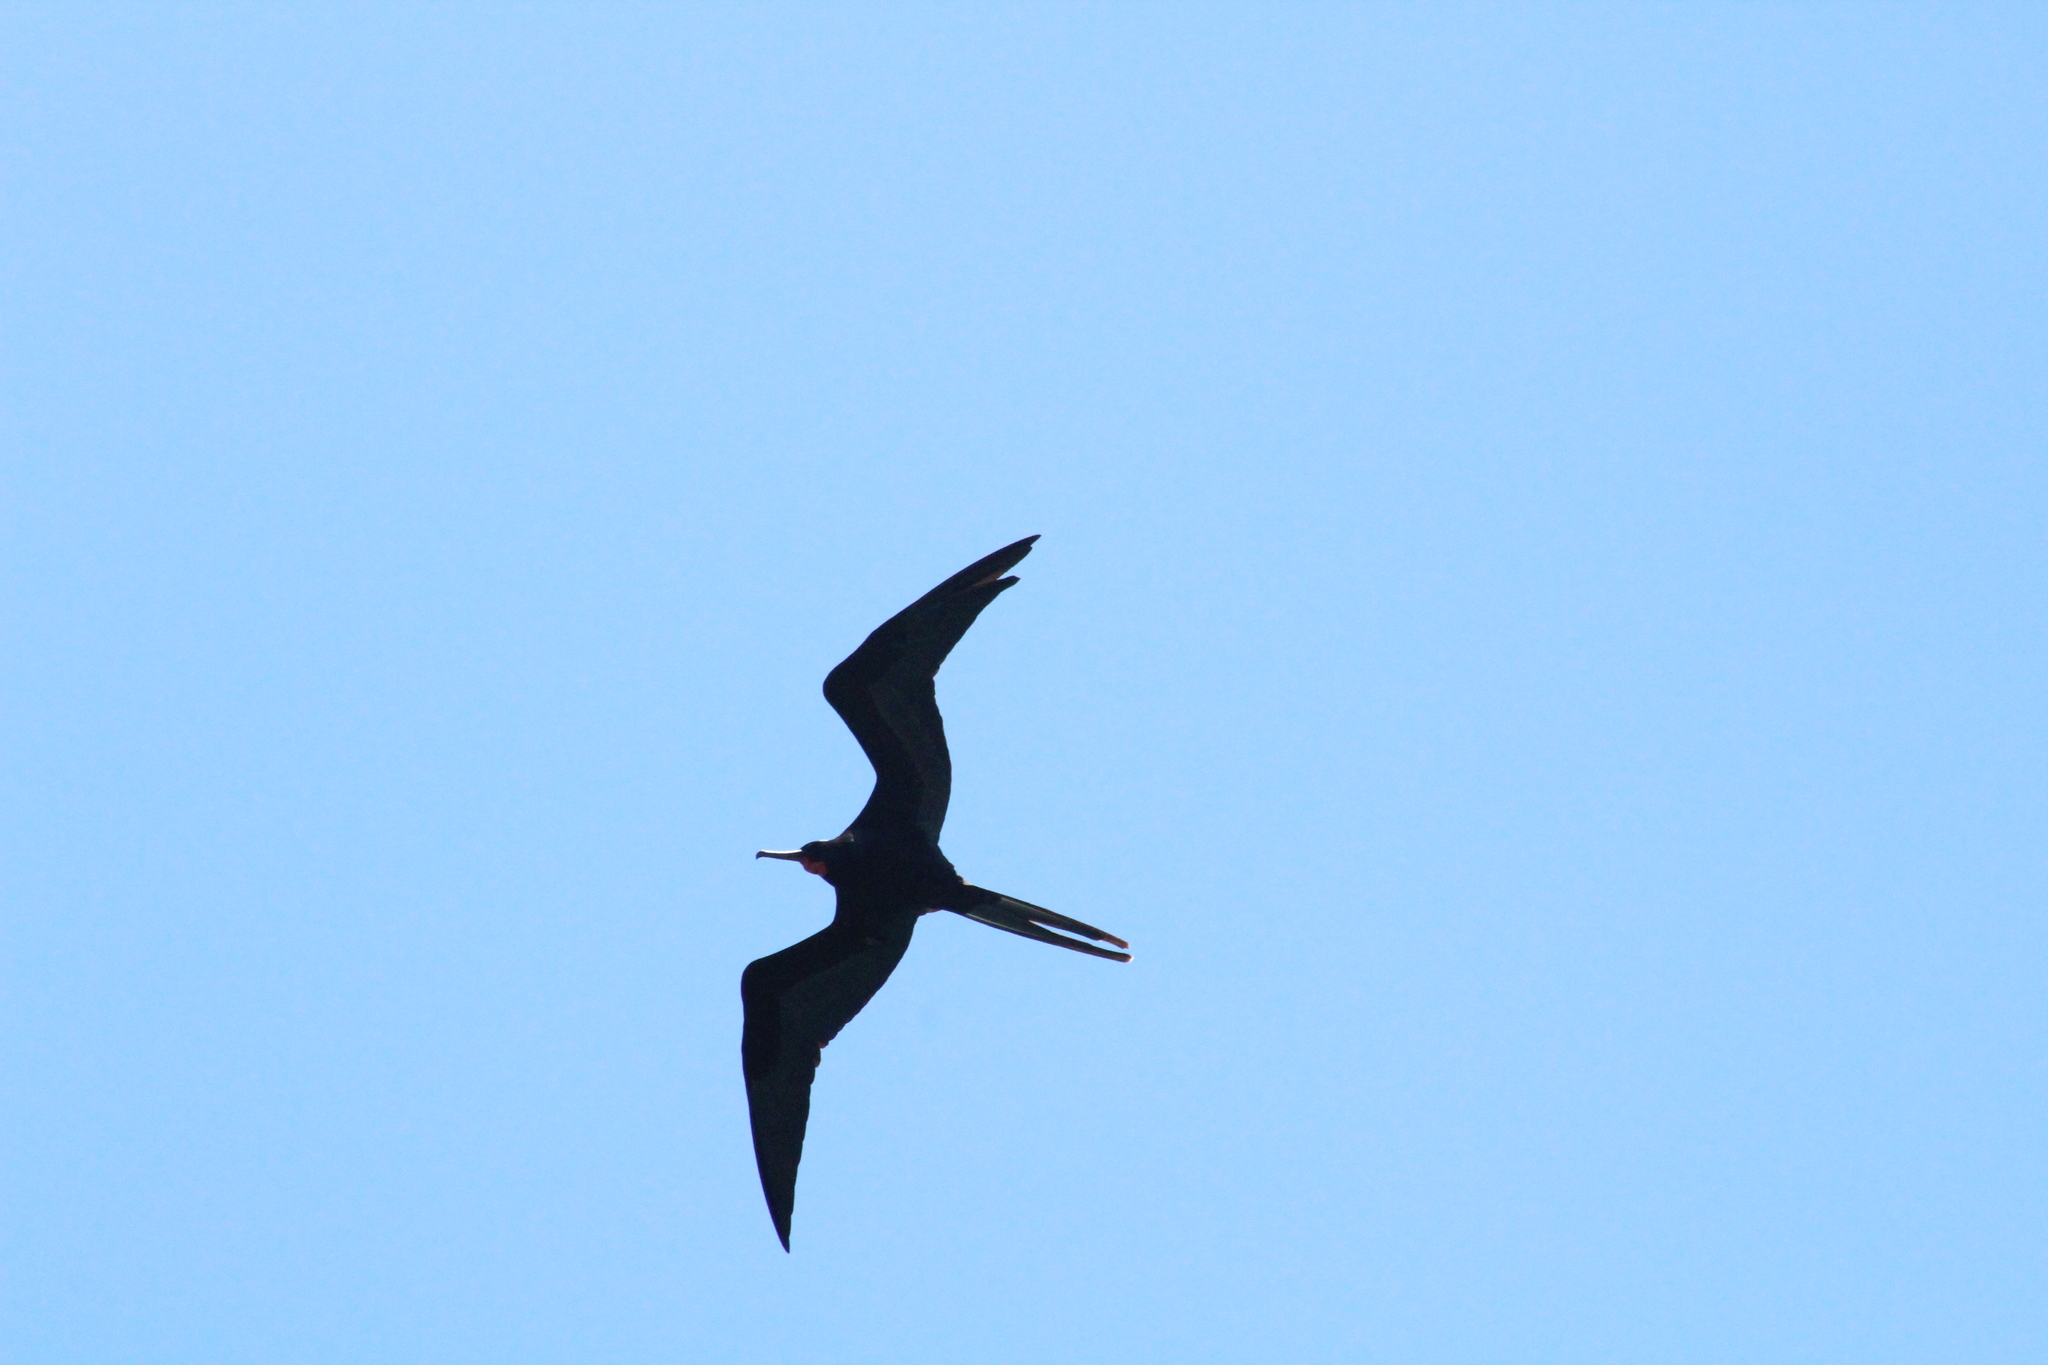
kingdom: Animalia
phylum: Chordata
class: Aves
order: Suliformes
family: Fregatidae
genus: Fregata
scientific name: Fregata magnificens
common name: Magnificent frigatebird
